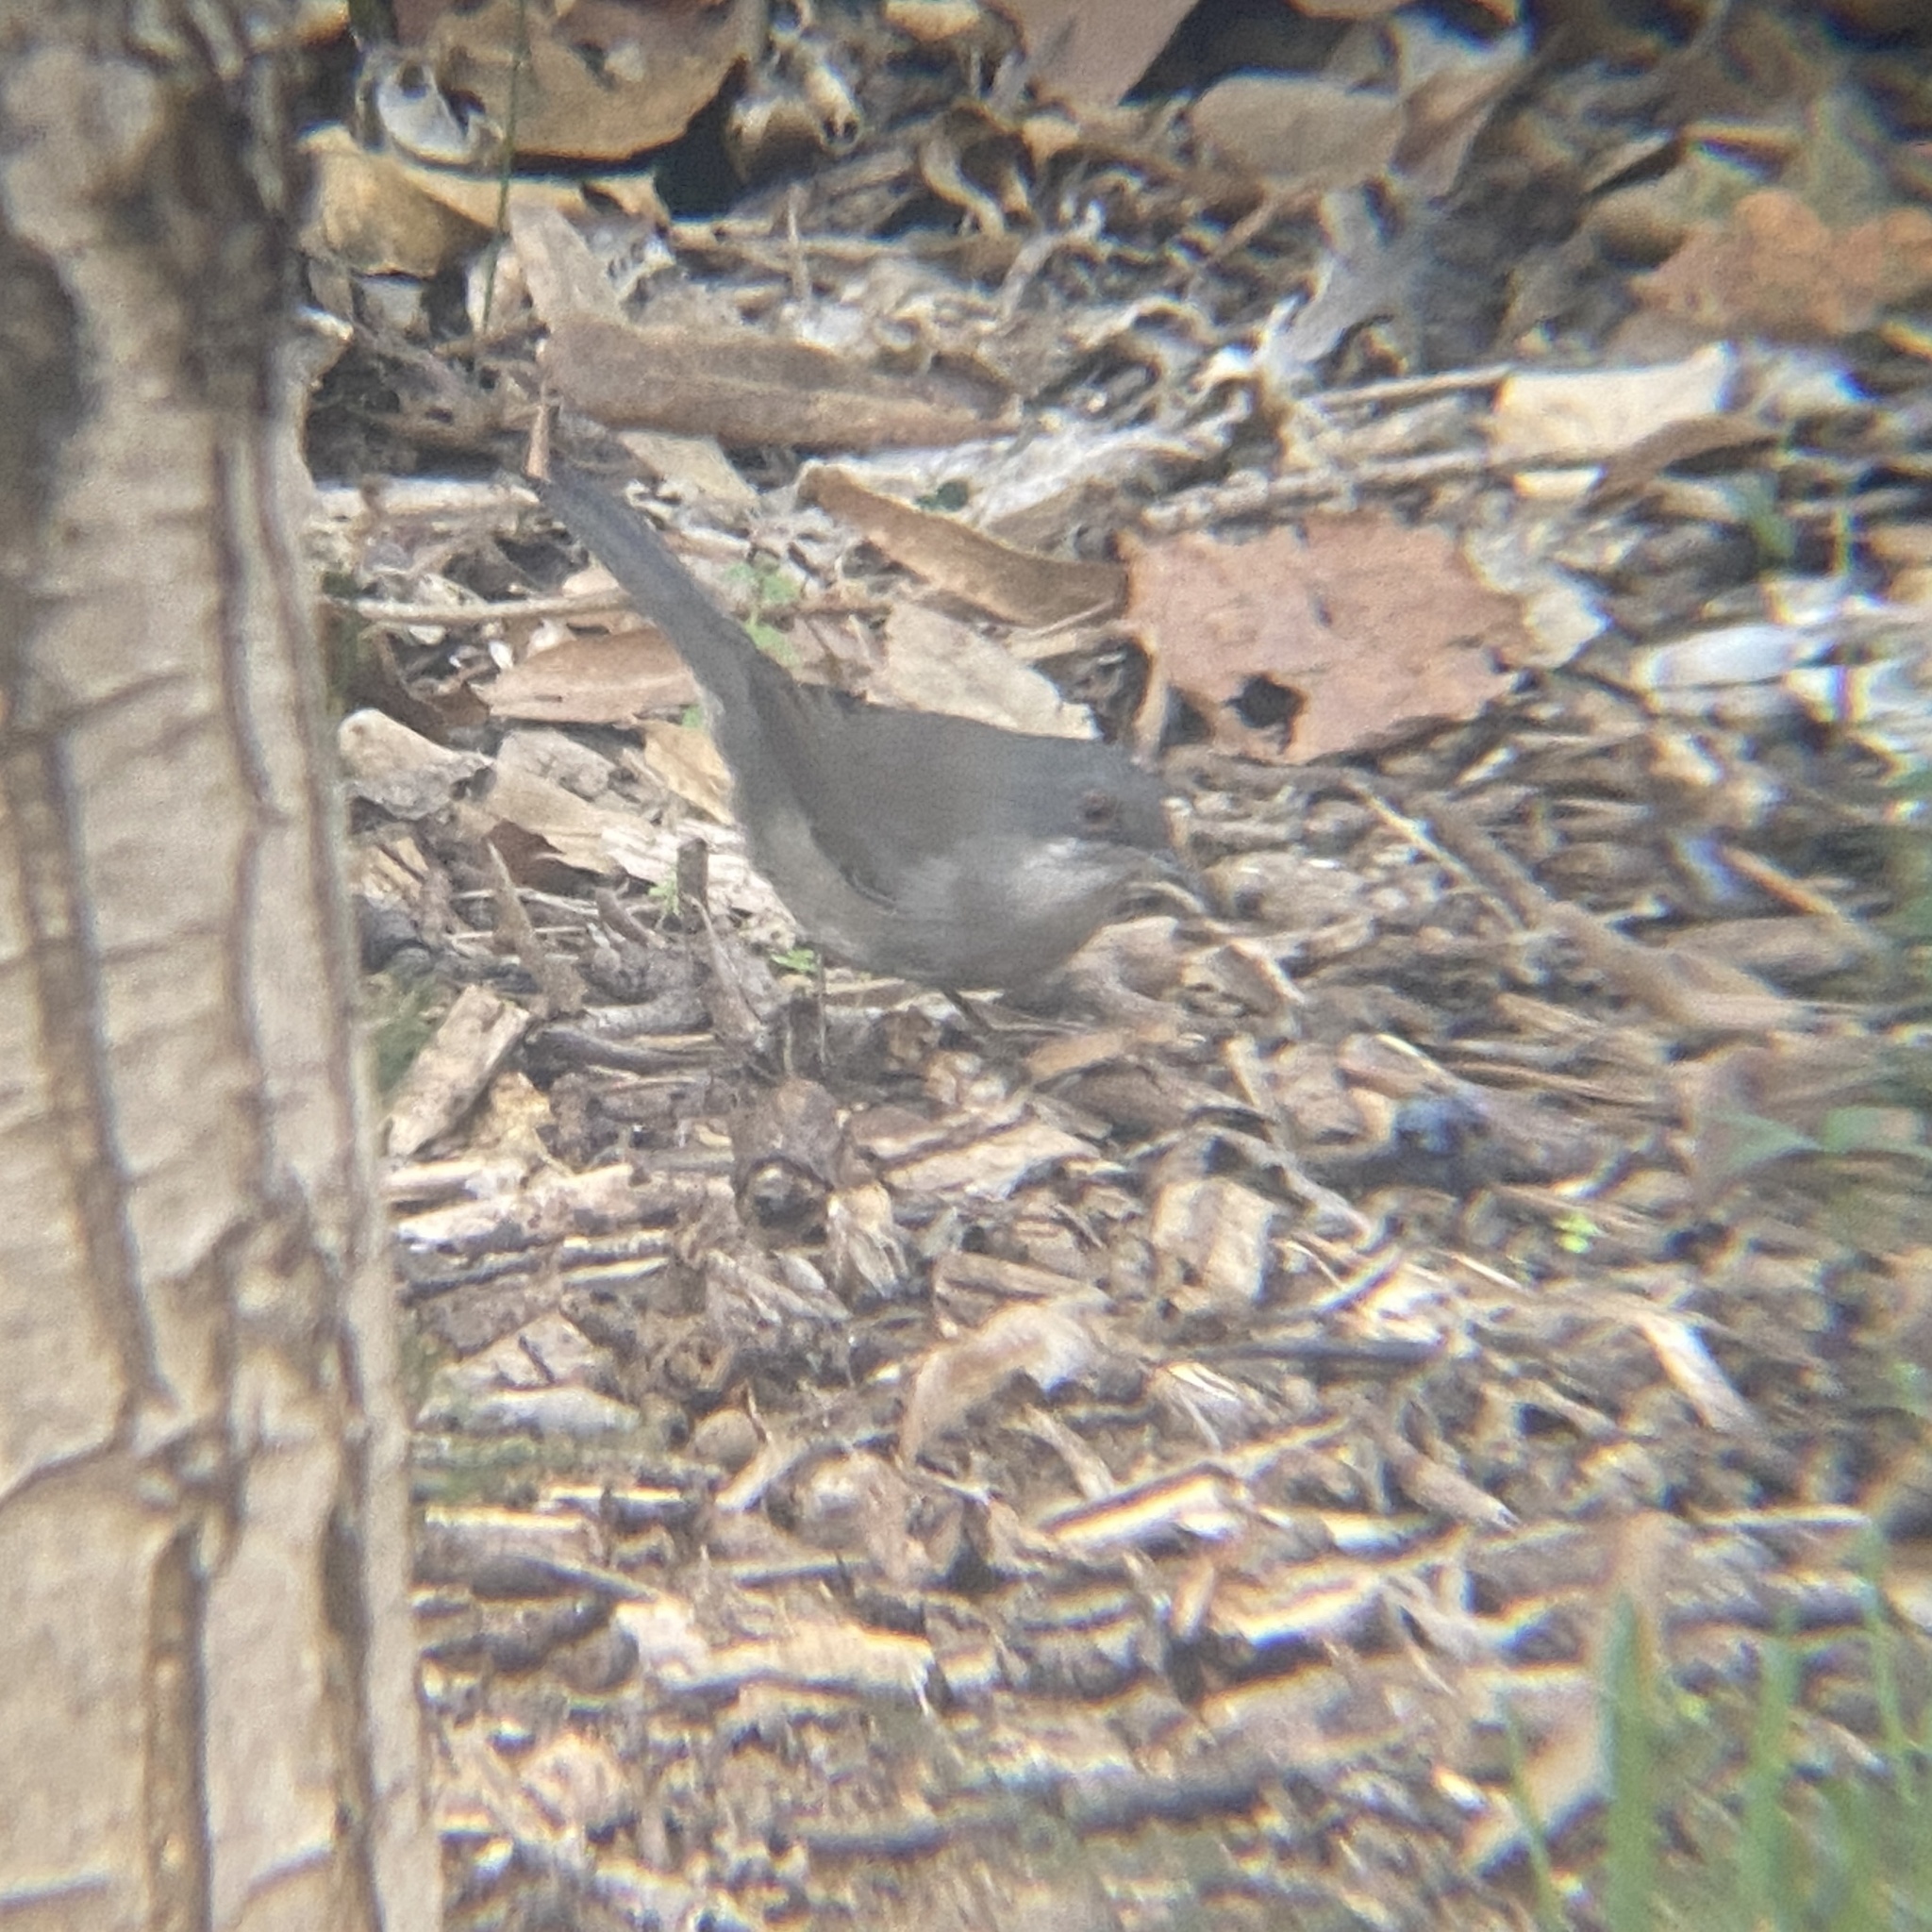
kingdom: Animalia
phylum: Chordata
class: Aves
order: Passeriformes
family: Sylviidae
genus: Curruca
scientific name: Curruca melanocephala
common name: Sardinian warbler
